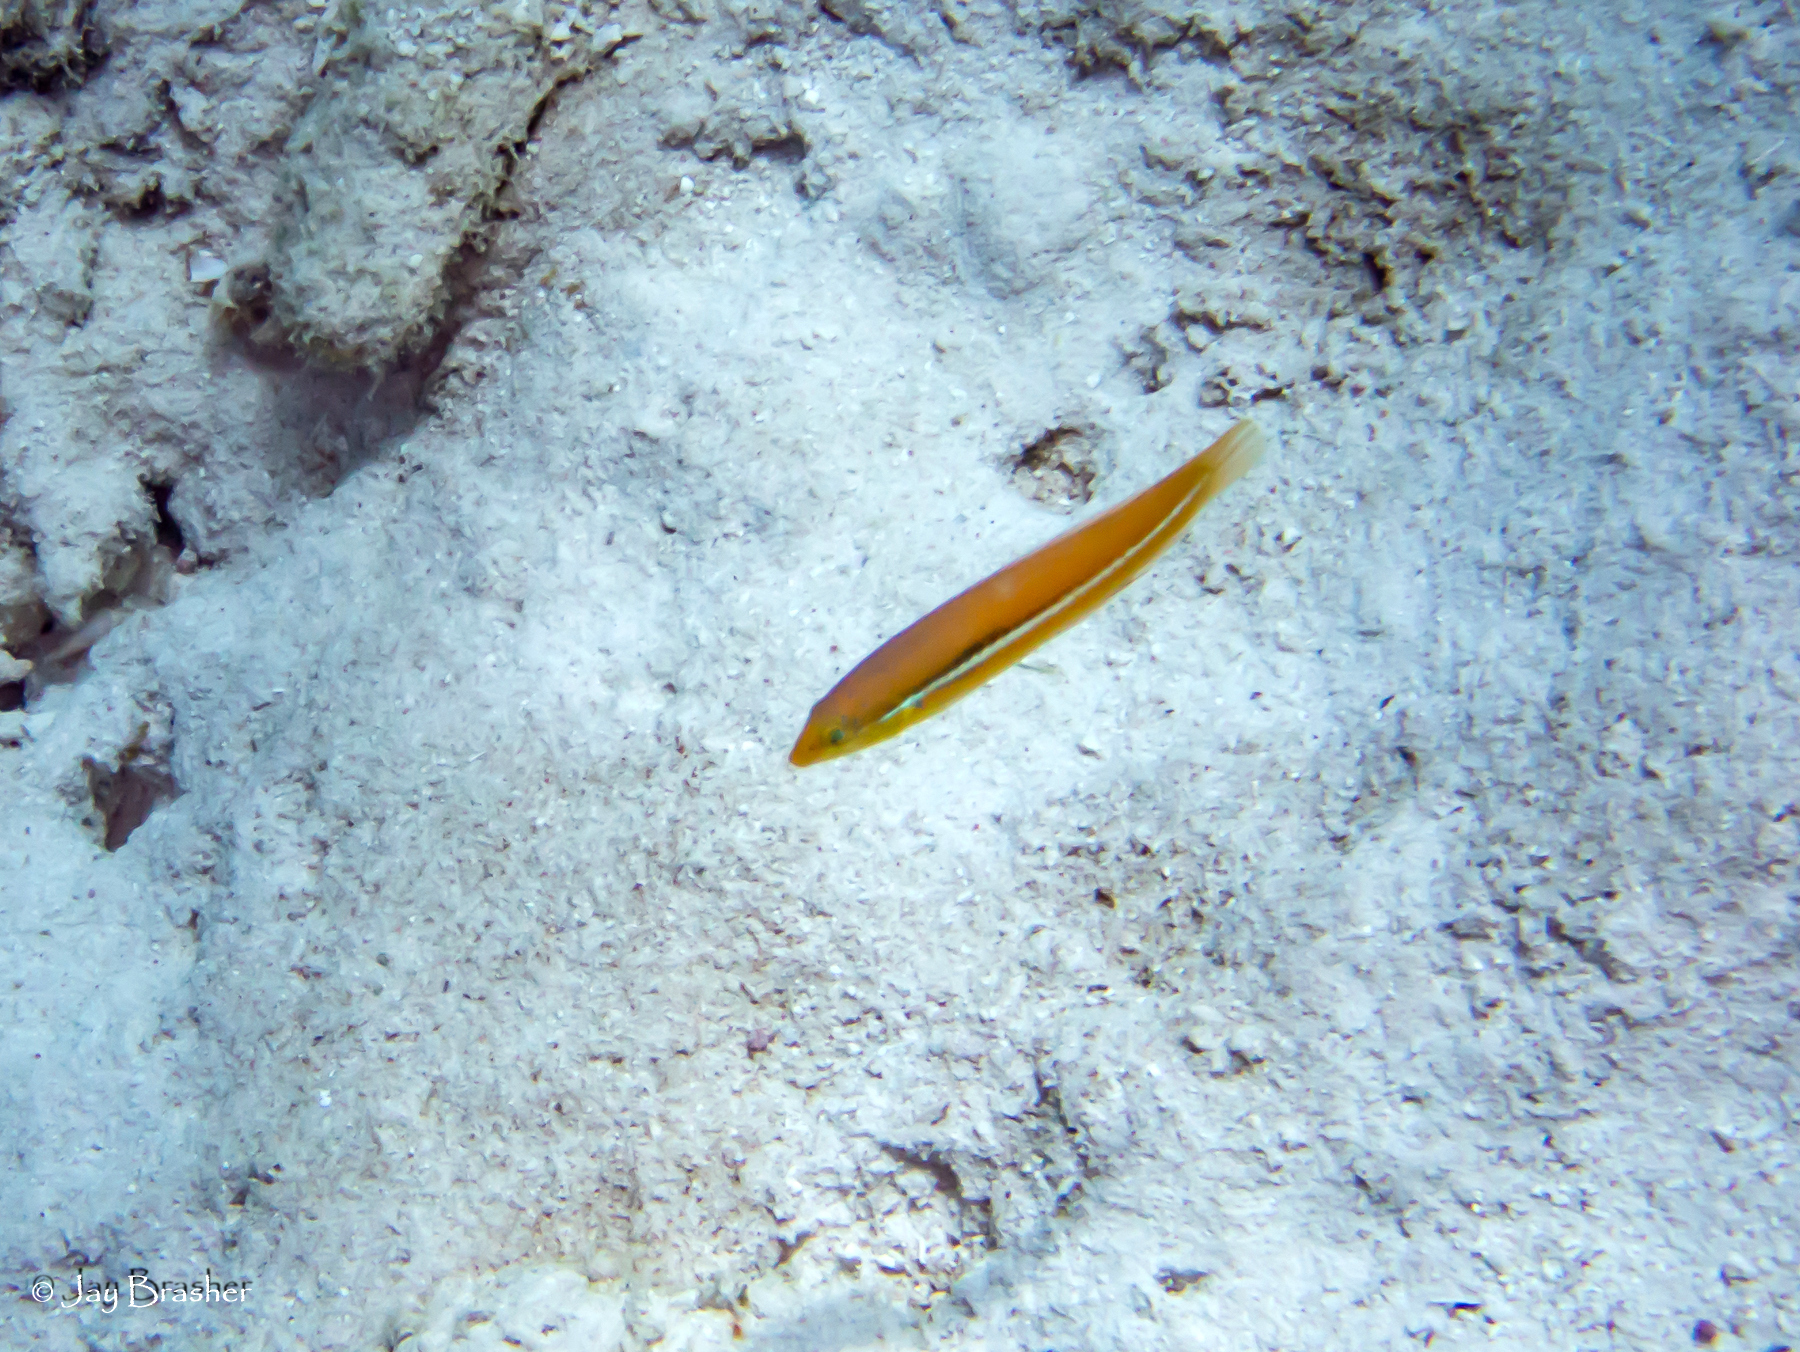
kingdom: Animalia
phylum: Chordata
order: Perciformes
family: Labridae
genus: Halichoeres
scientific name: Halichoeres garnoti
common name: Yellowhead wrasse
